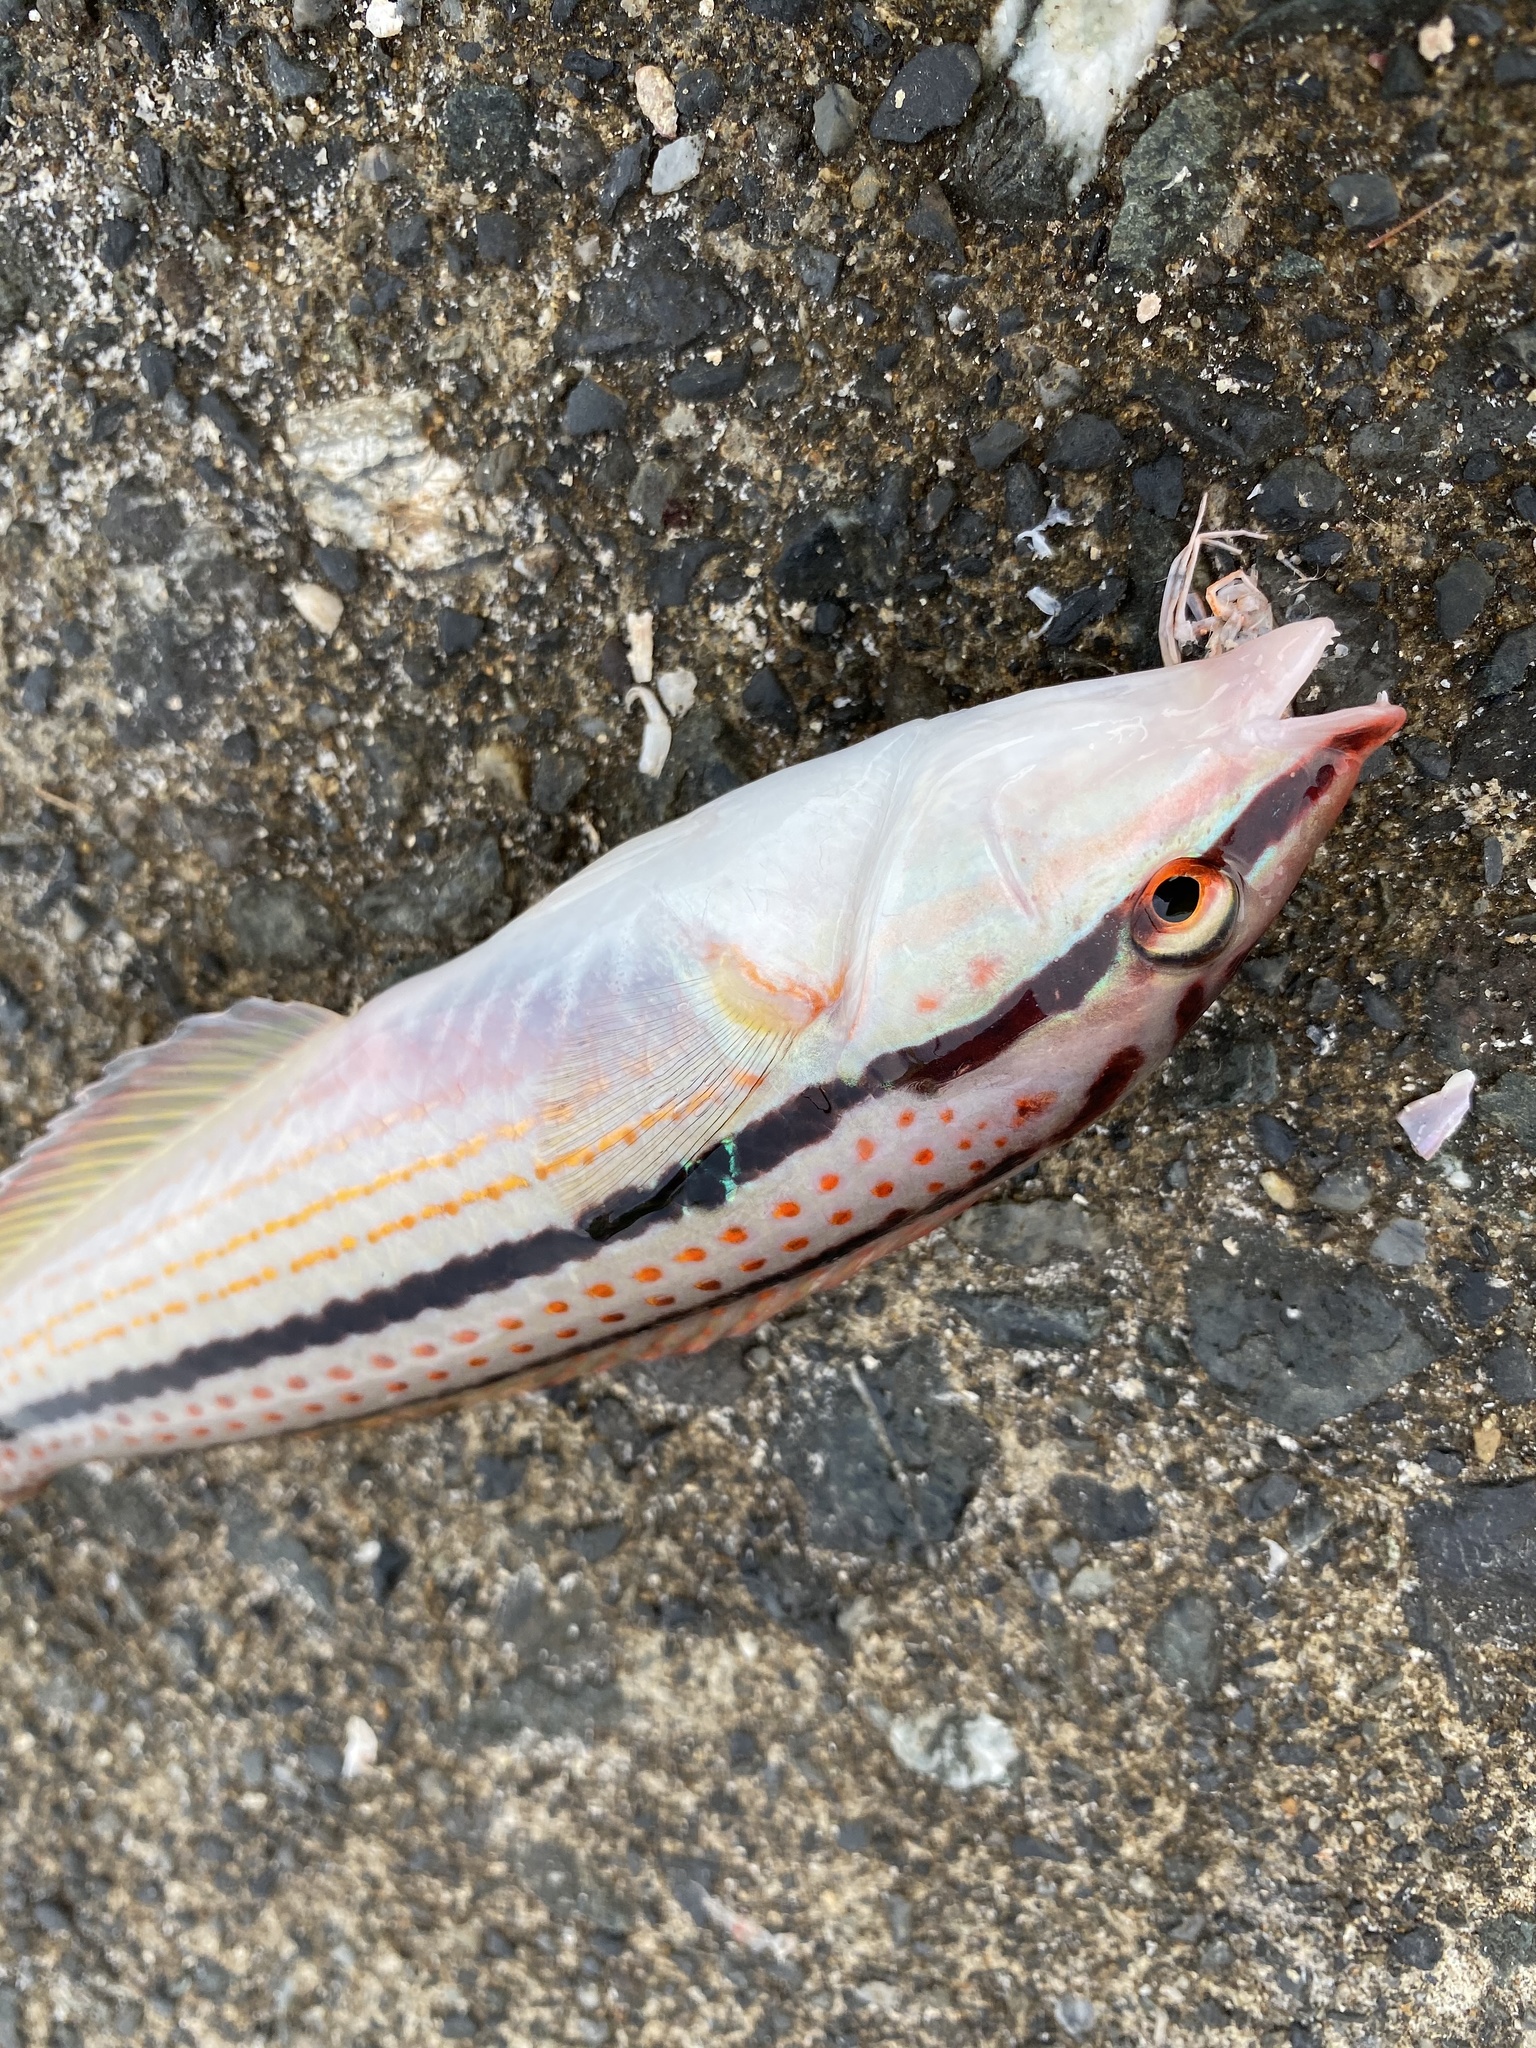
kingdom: Animalia
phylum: Chordata
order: Perciformes
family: Labridae
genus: Parajulis
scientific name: Parajulis poecilepterus
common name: Multicolorfin rainbowfish
